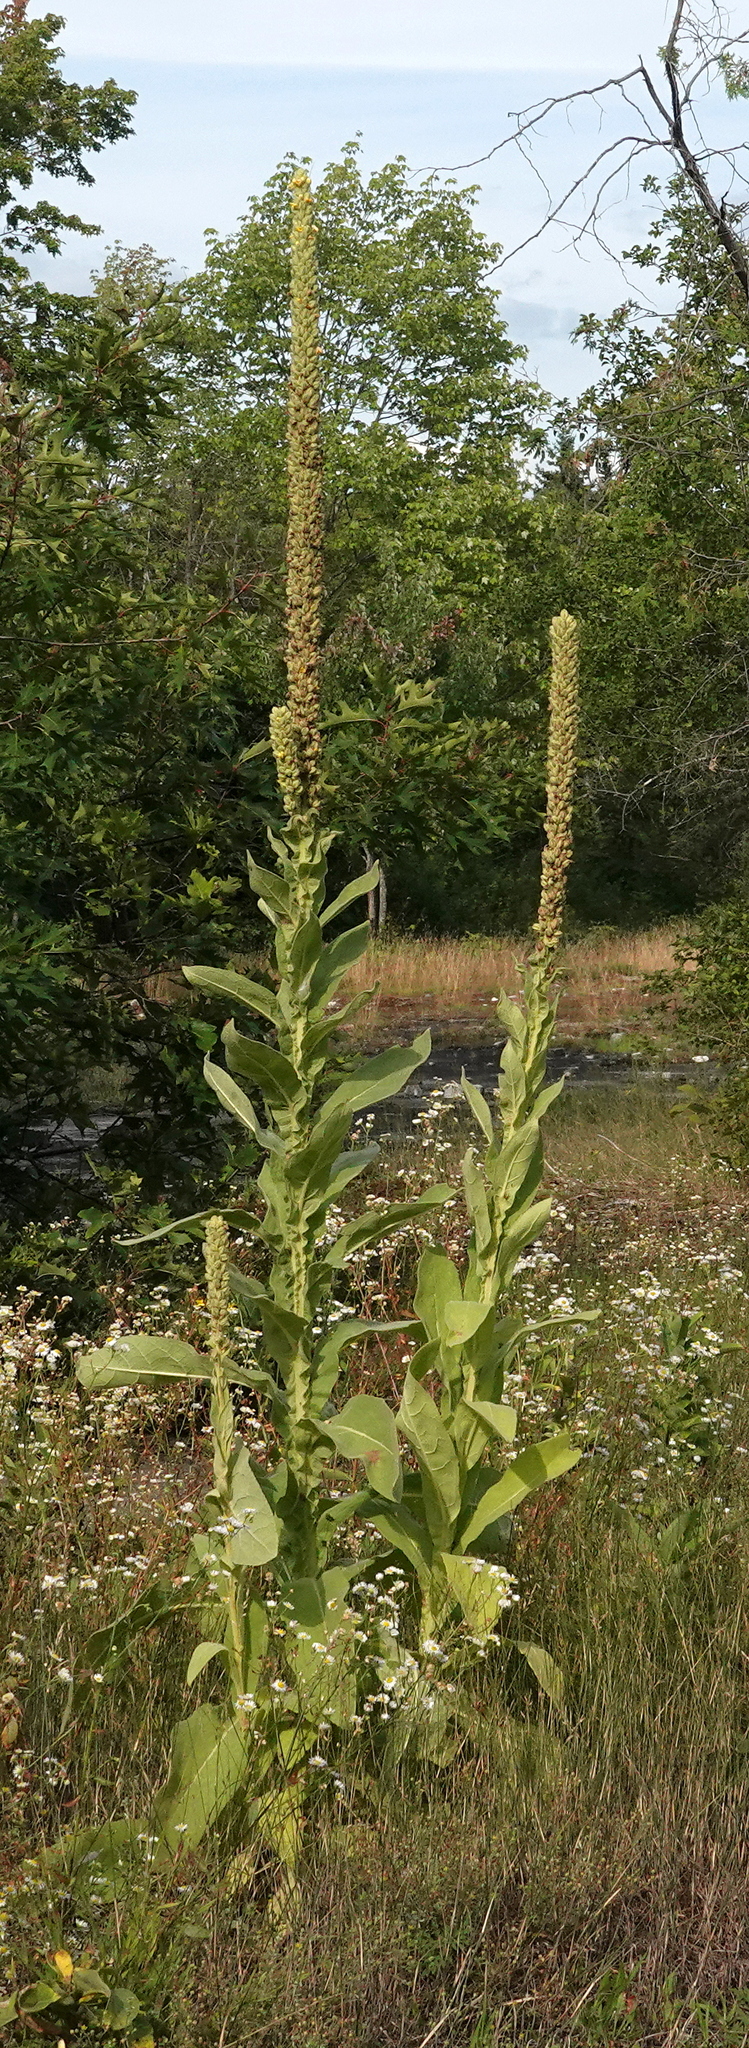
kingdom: Plantae
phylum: Tracheophyta
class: Magnoliopsida
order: Lamiales
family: Scrophulariaceae
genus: Verbascum
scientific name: Verbascum thapsus
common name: Common mullein
